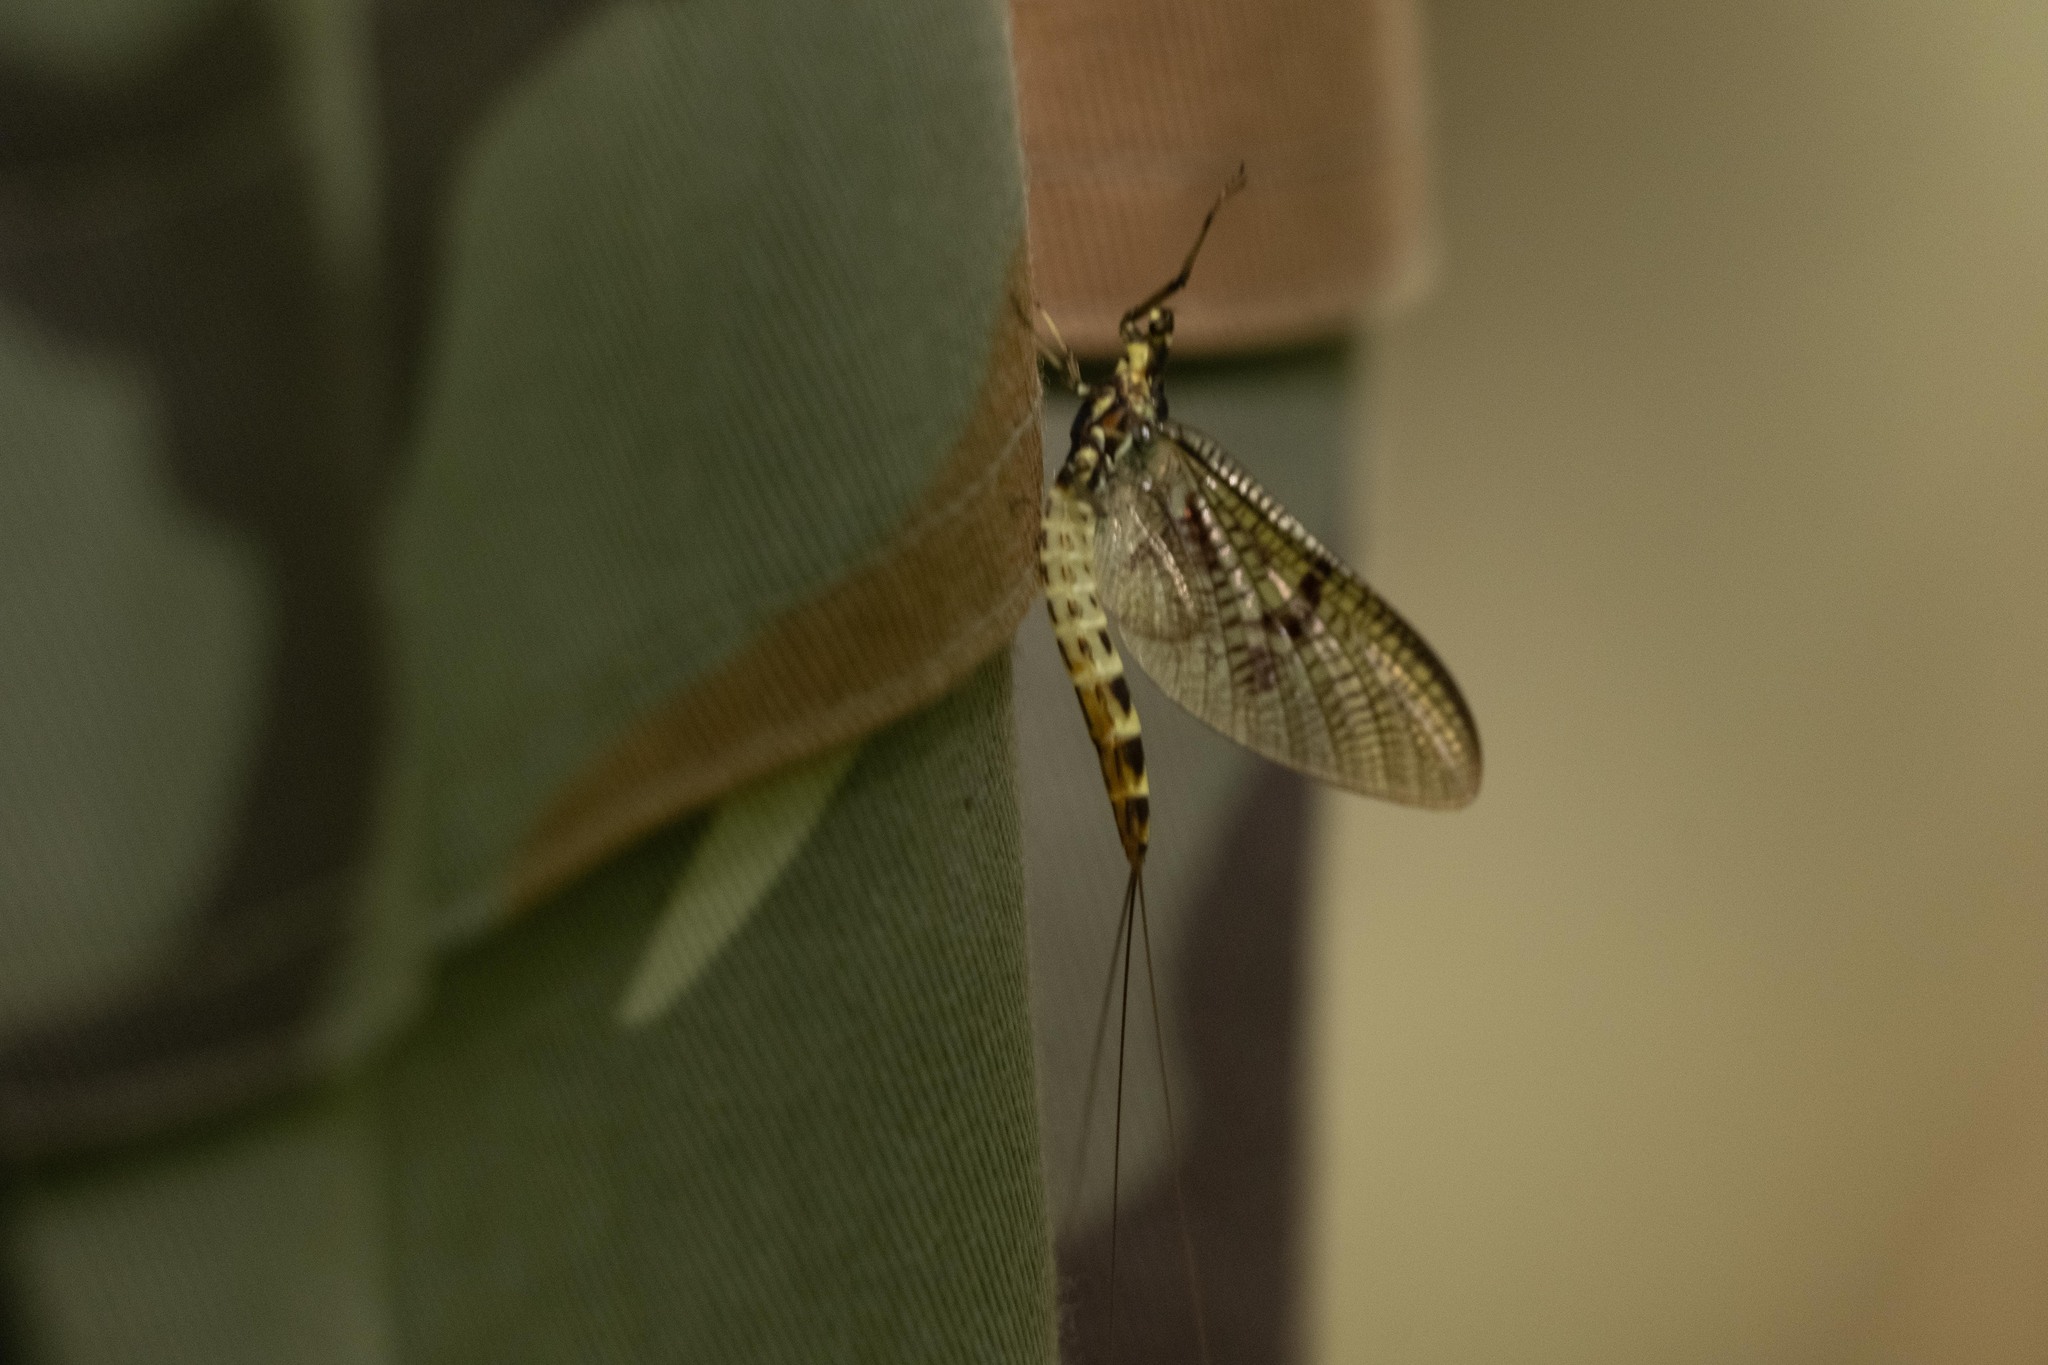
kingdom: Animalia
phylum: Arthropoda
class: Insecta
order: Ephemeroptera
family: Ephemeridae
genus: Ephemera
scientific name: Ephemera danica
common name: Green dun
